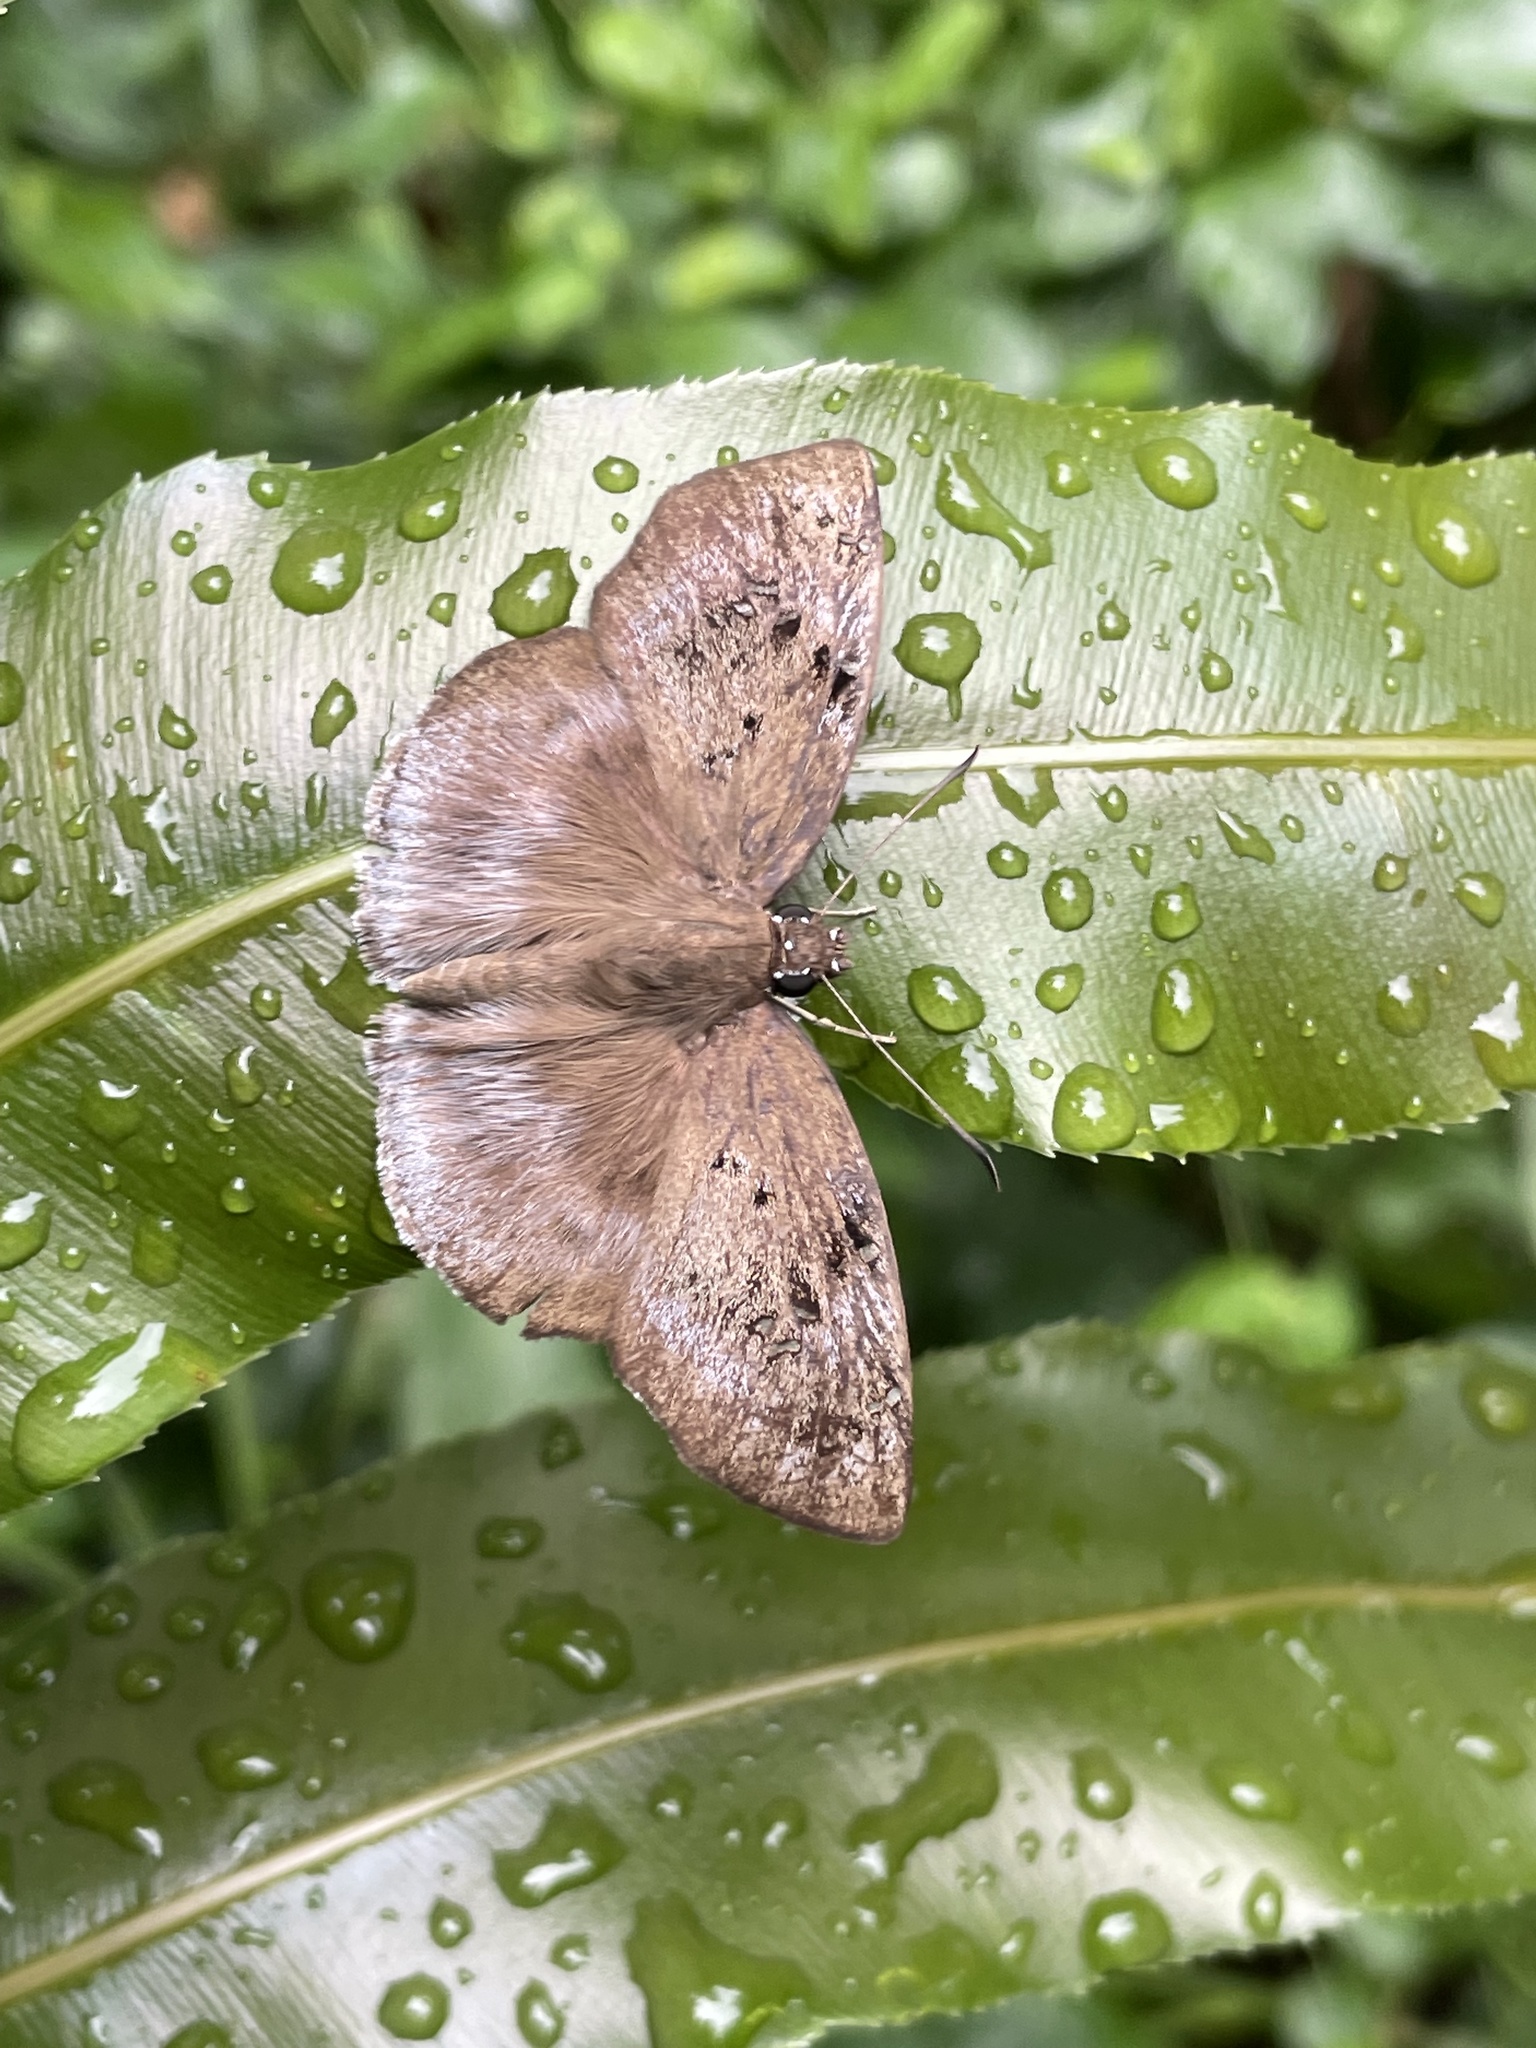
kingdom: Animalia
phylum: Arthropoda
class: Insecta
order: Lepidoptera
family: Hesperiidae
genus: Tagiades
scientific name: Tagiades flesus
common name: Clouded flat
